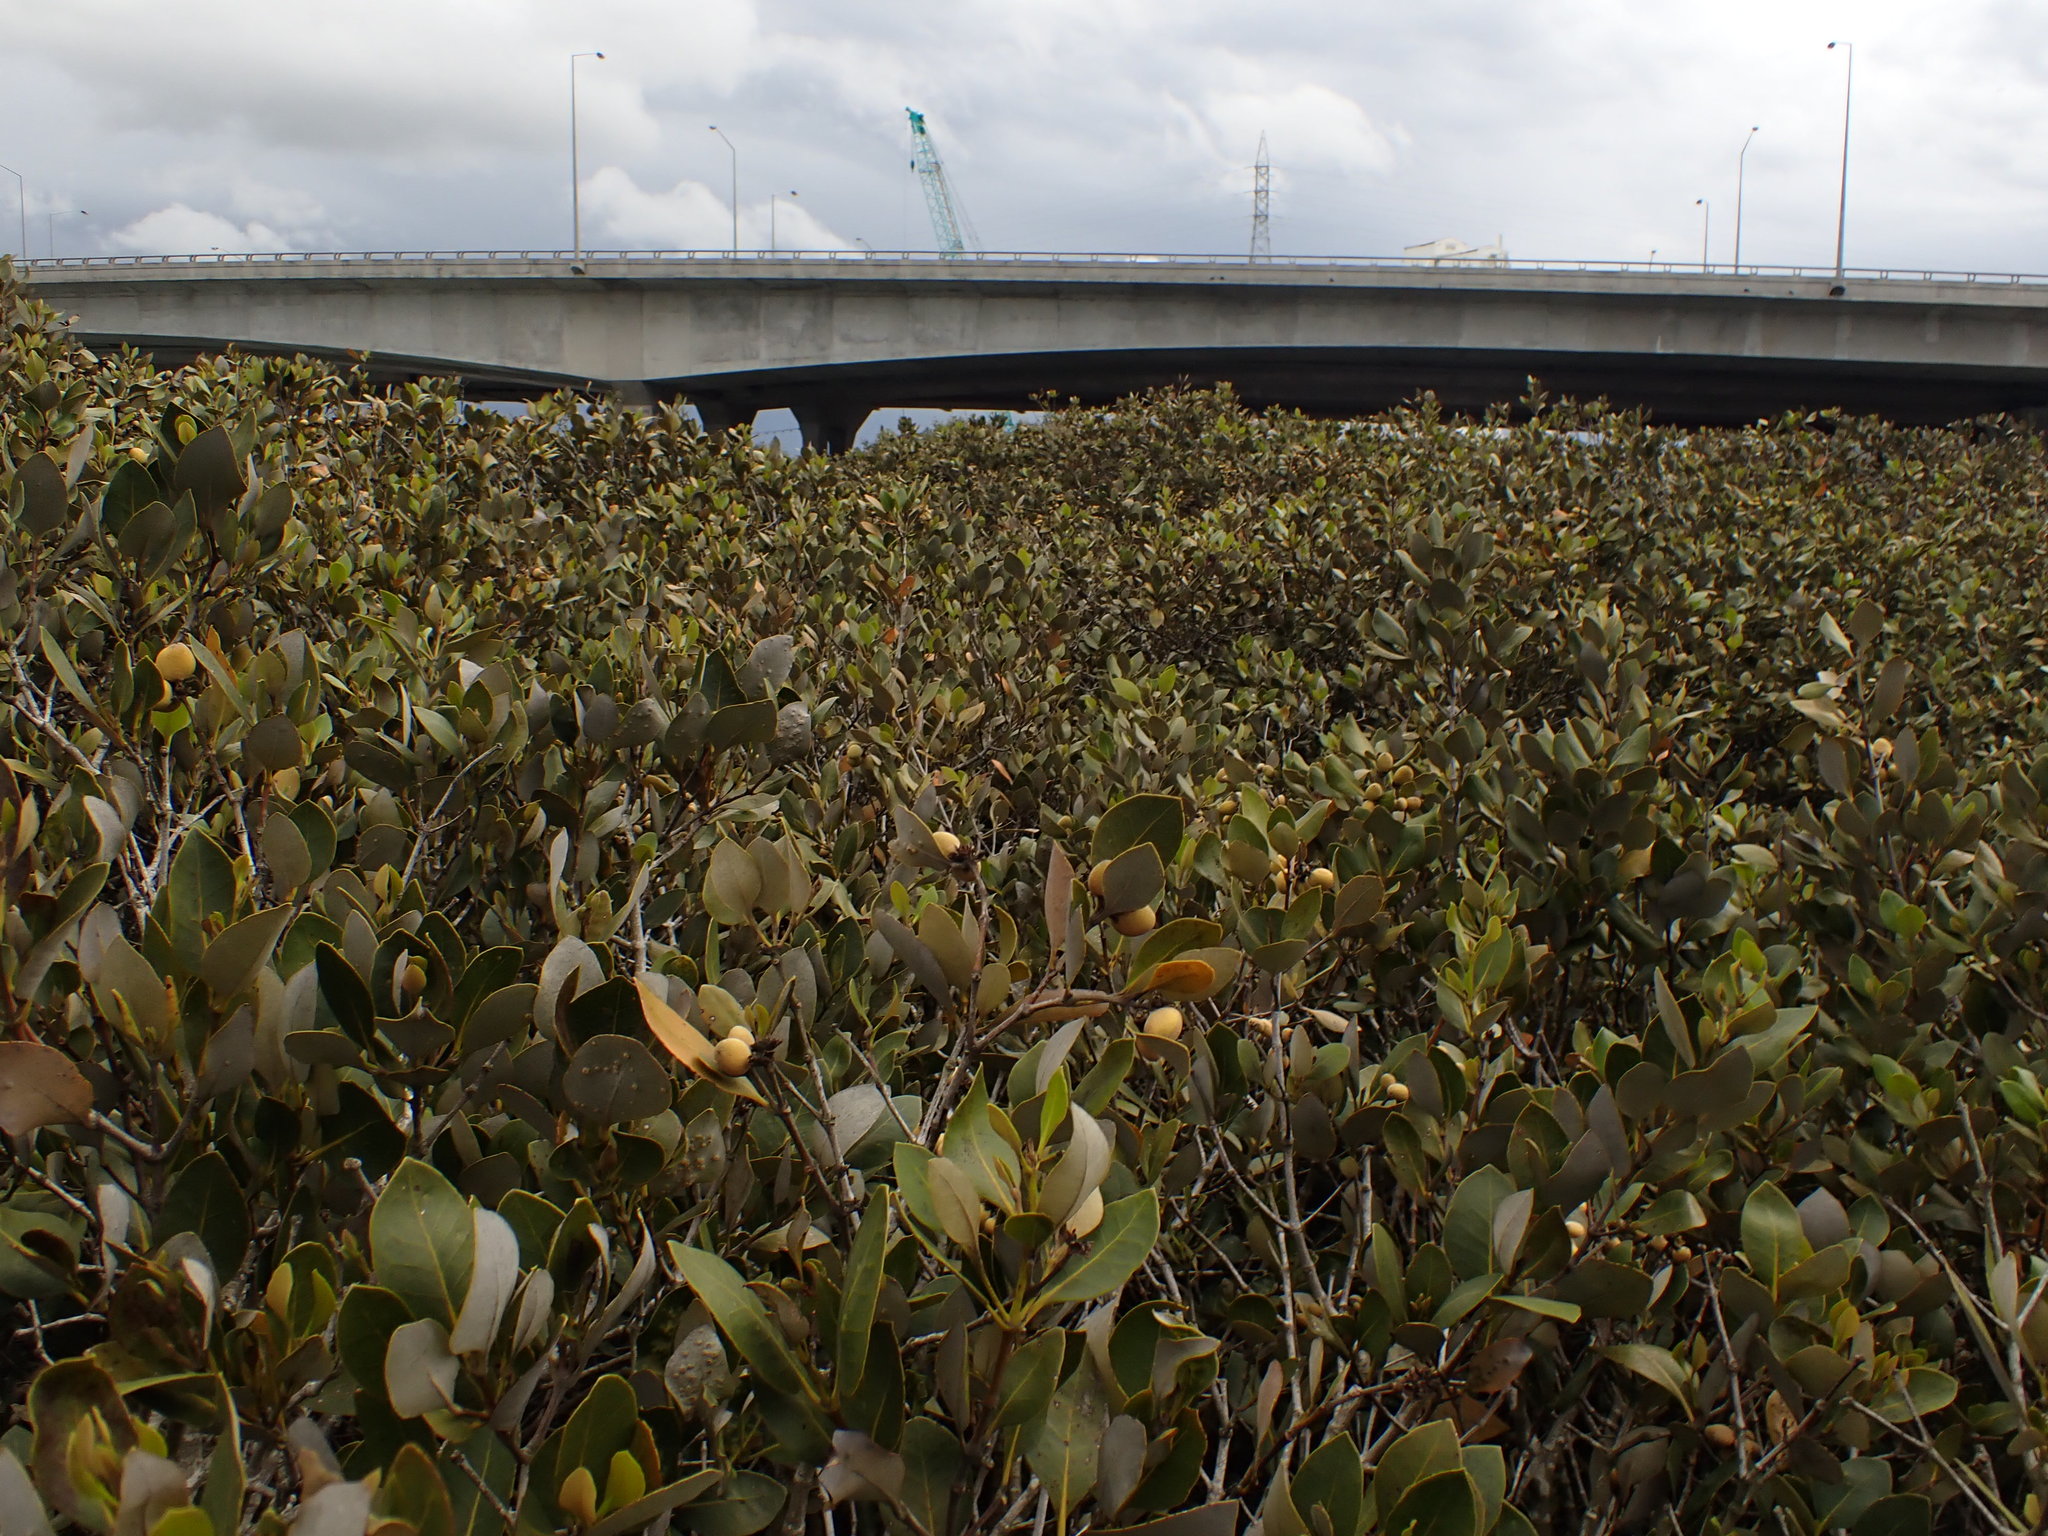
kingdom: Plantae
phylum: Tracheophyta
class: Magnoliopsida
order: Lamiales
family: Acanthaceae
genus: Avicennia
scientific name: Avicennia marina
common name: Gray mangrove
